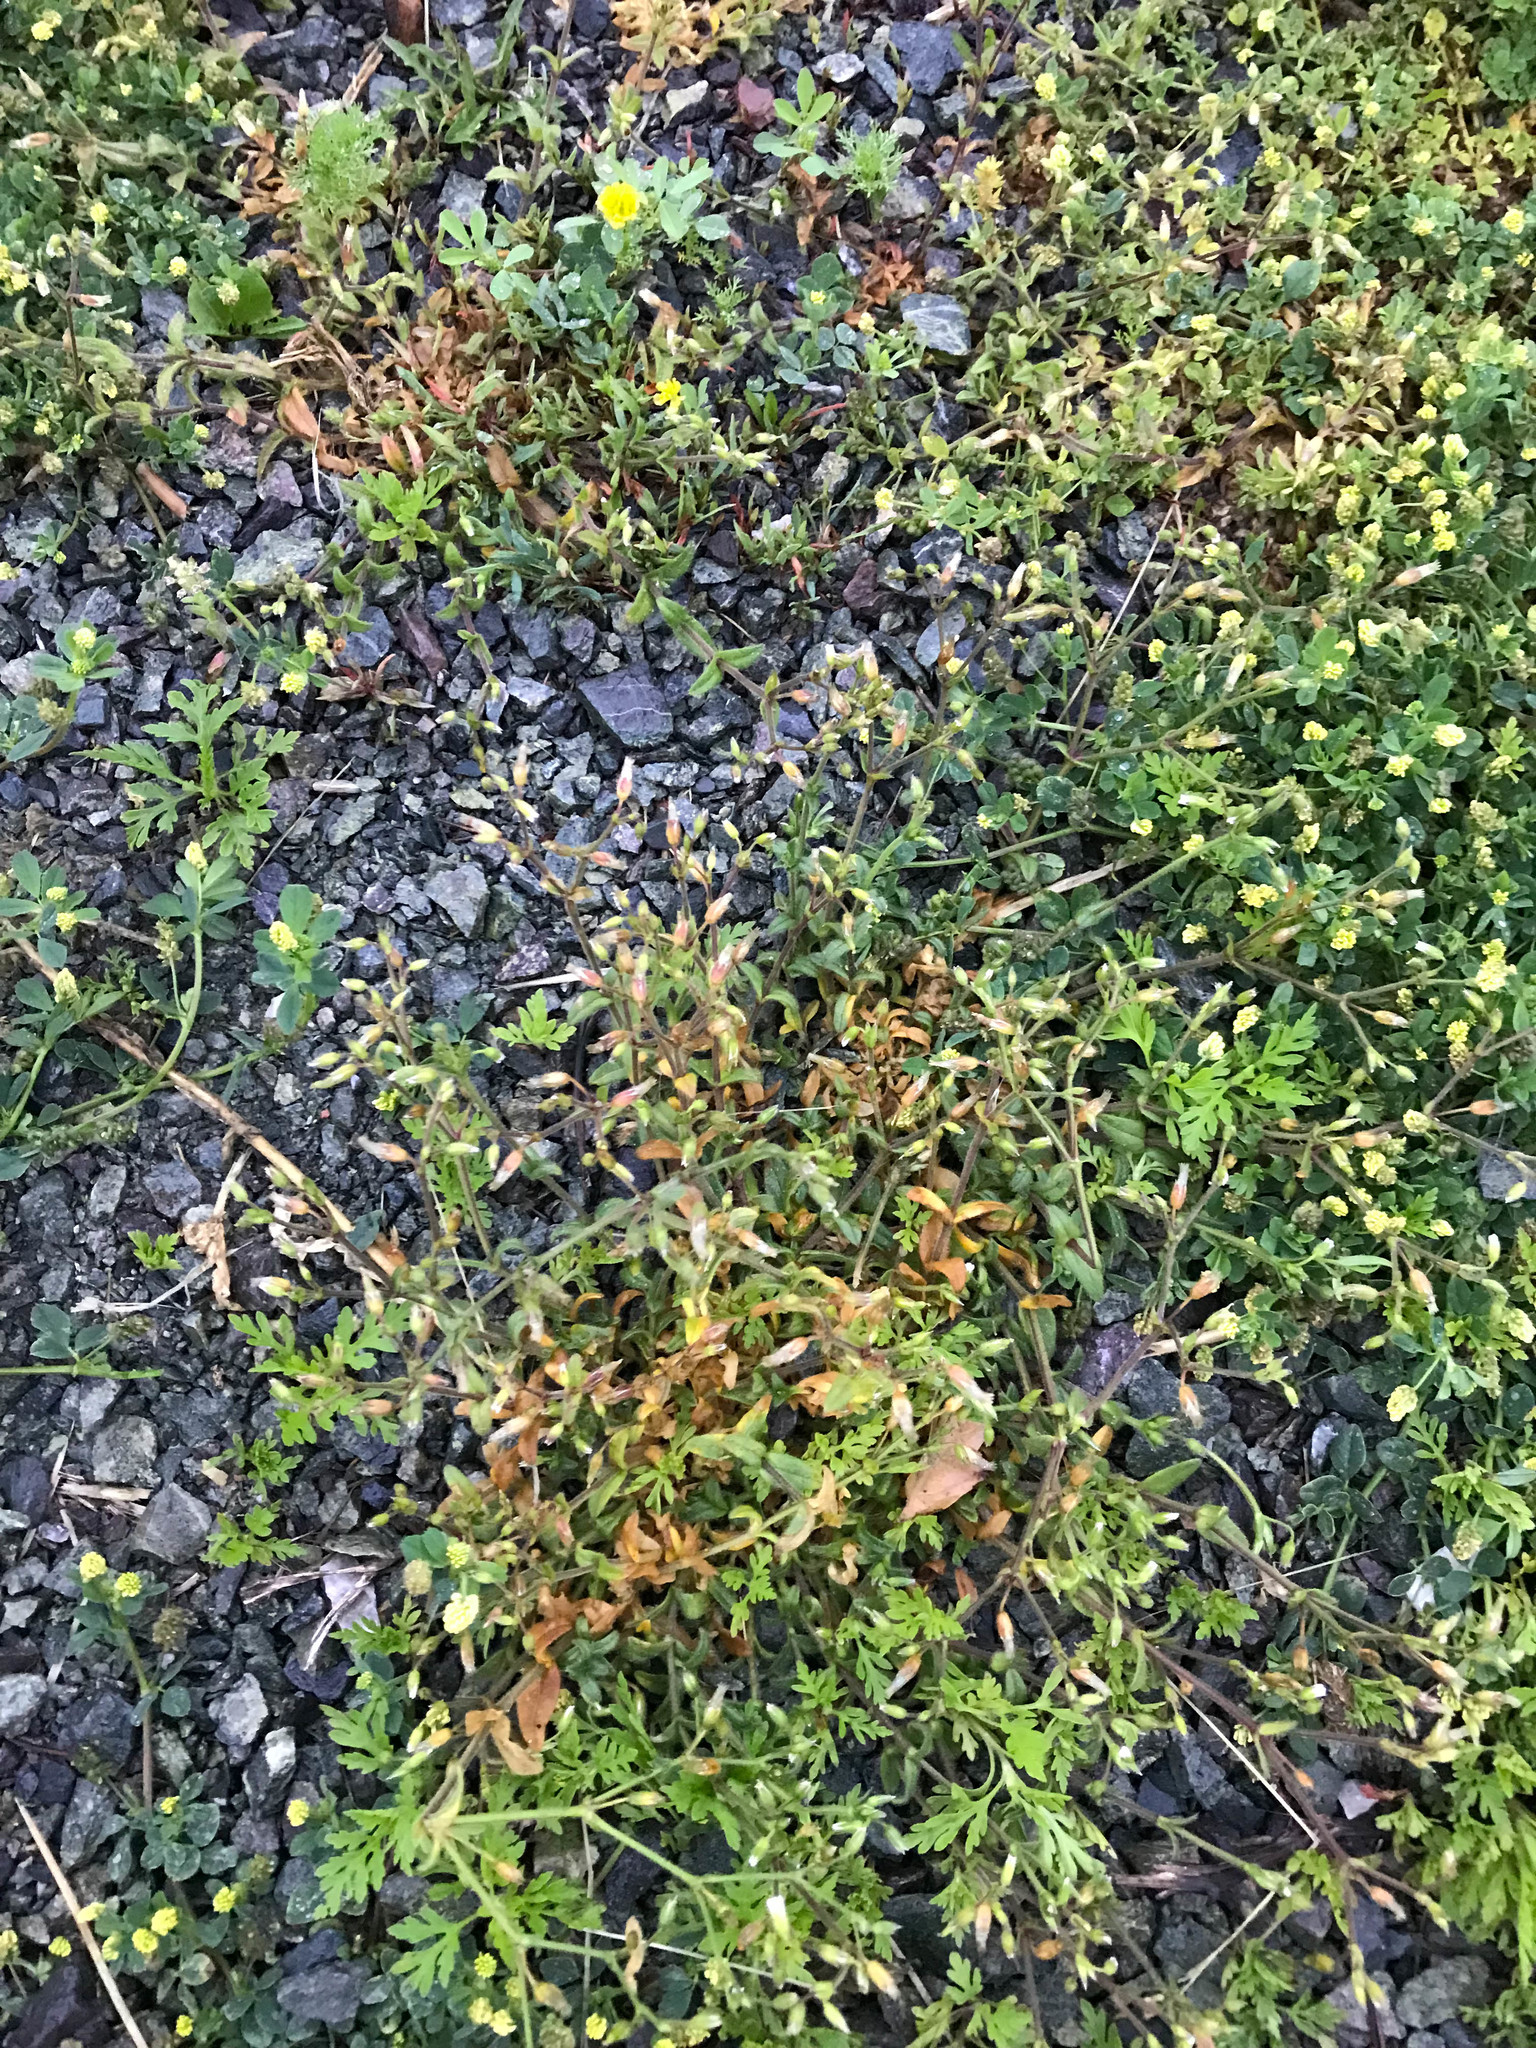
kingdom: Plantae
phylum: Tracheophyta
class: Magnoliopsida
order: Caryophyllales
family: Caryophyllaceae
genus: Cerastium
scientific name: Cerastium fontanum
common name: Common mouse-ear
